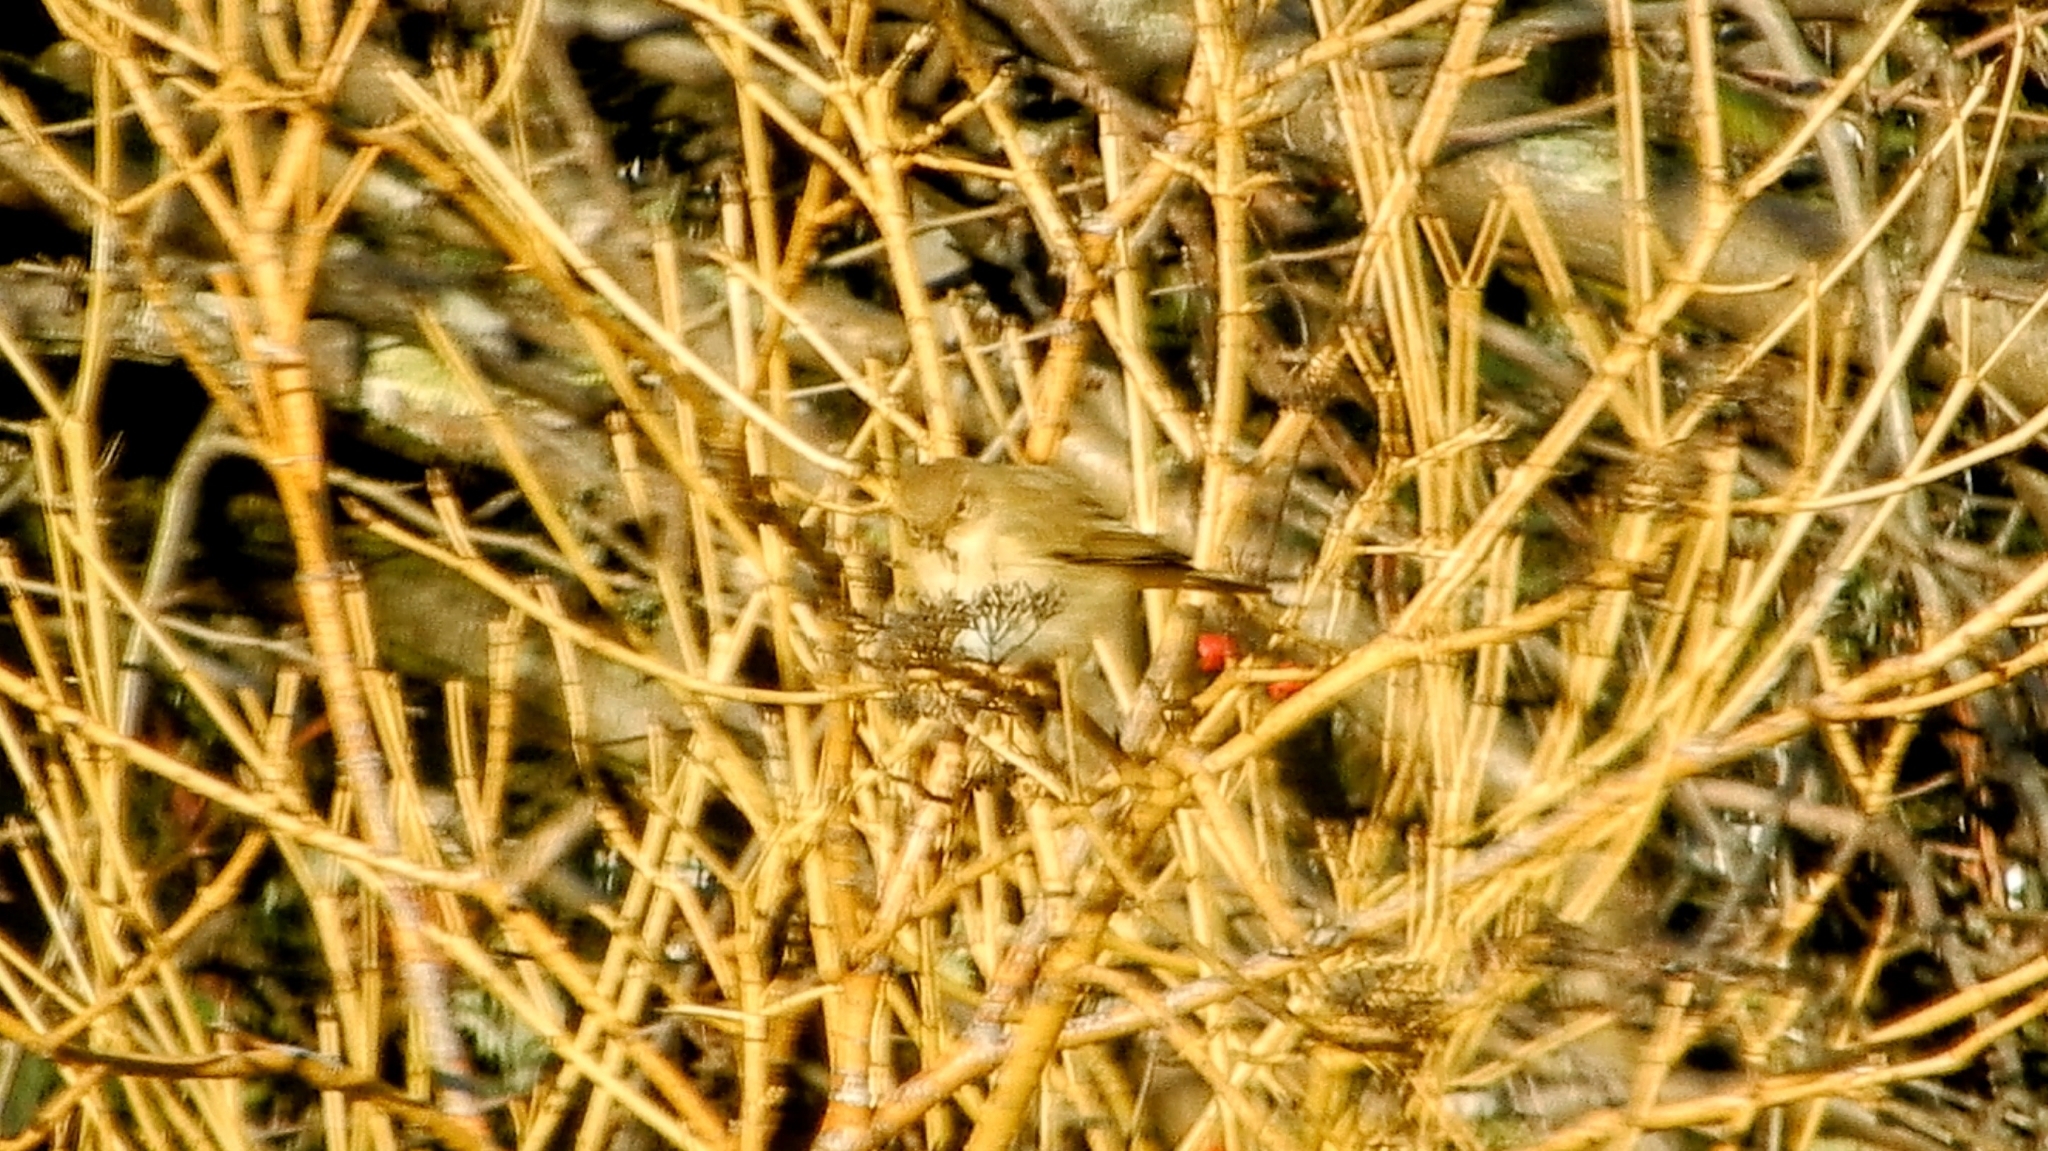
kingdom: Animalia
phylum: Chordata
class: Aves
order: Passeriformes
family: Phylloscopidae
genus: Phylloscopus
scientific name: Phylloscopus collybita
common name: Common chiffchaff
